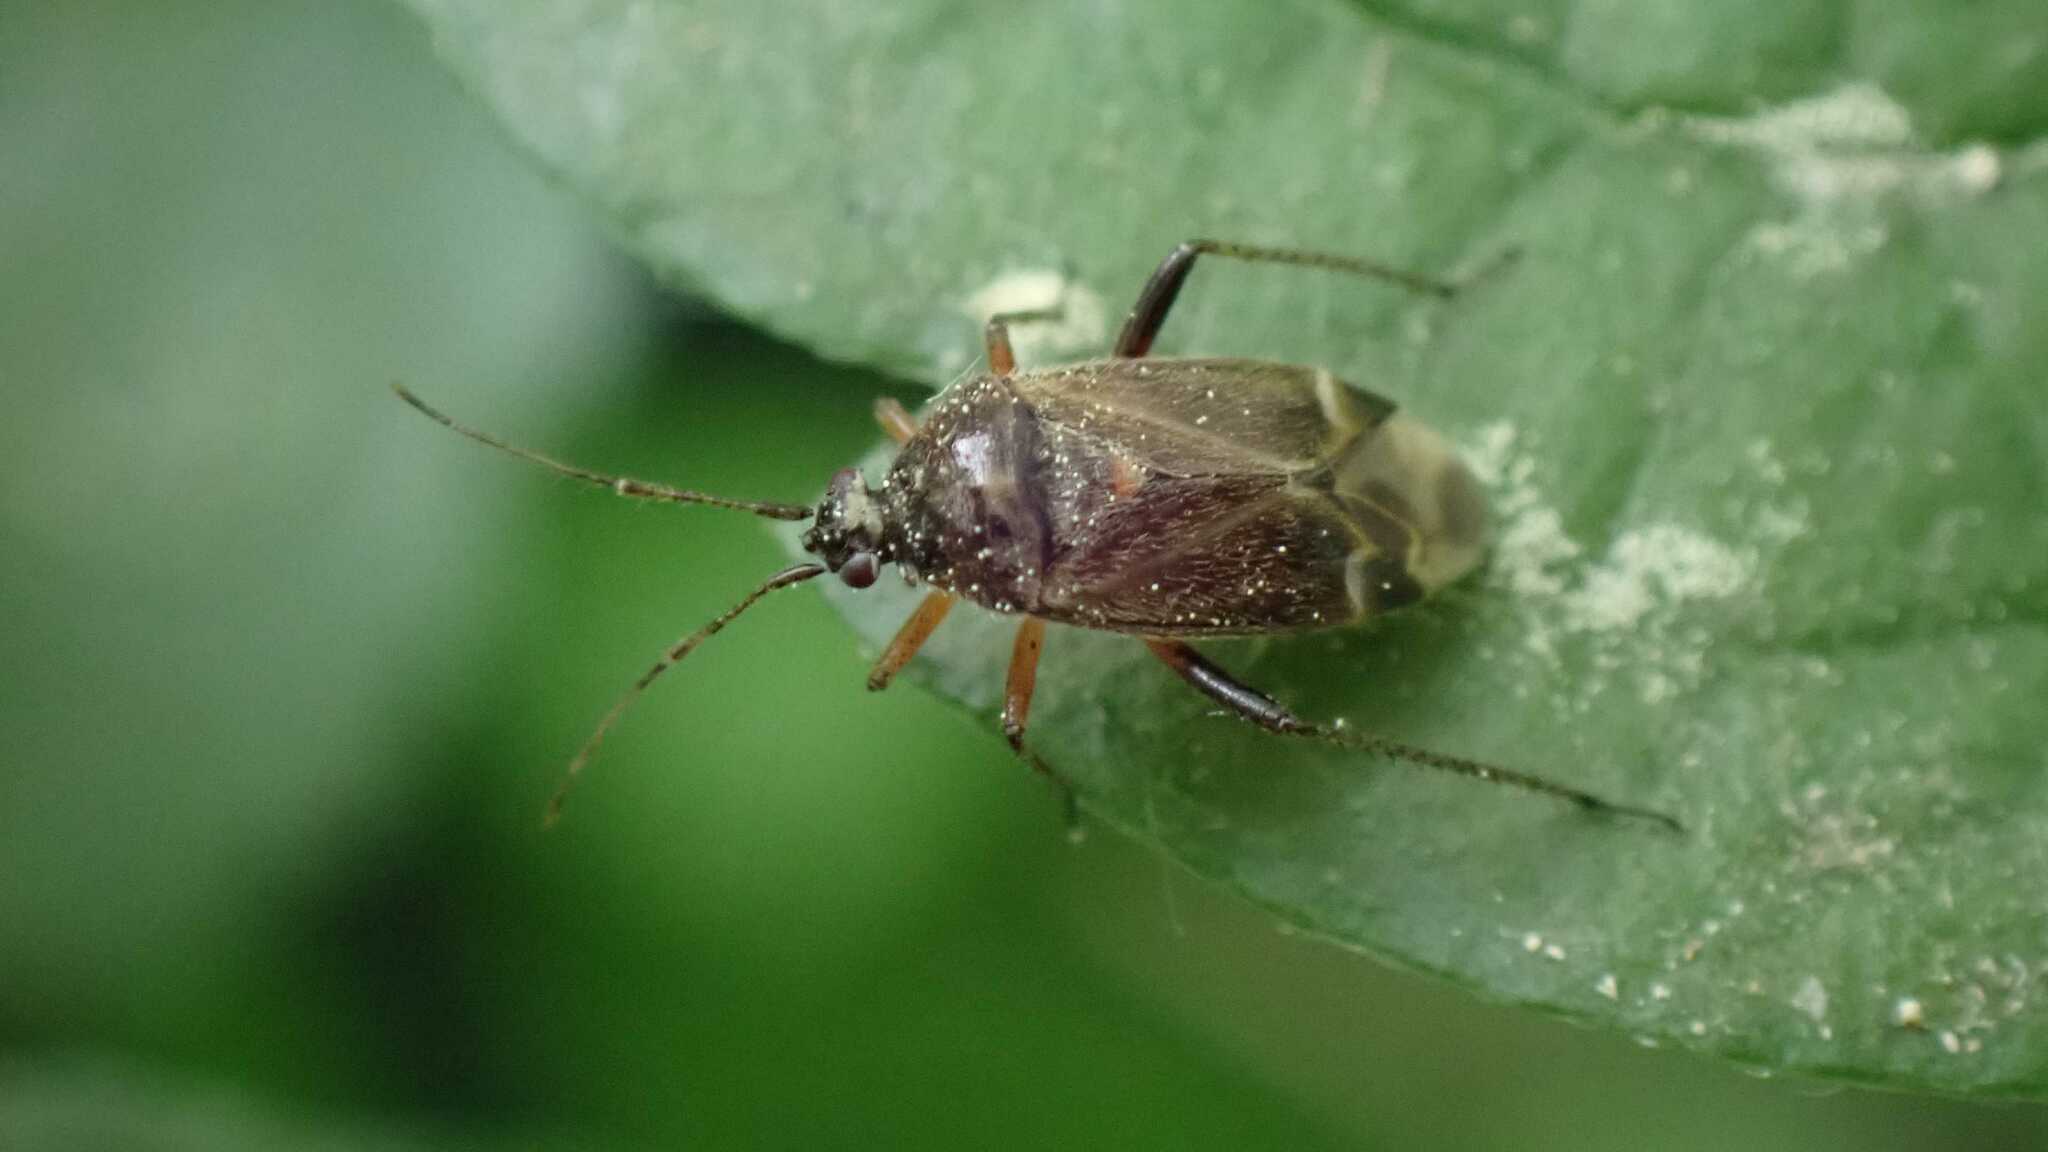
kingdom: Animalia
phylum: Arthropoda
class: Insecta
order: Hemiptera
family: Miridae
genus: Harpocera
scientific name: Harpocera thoracica
